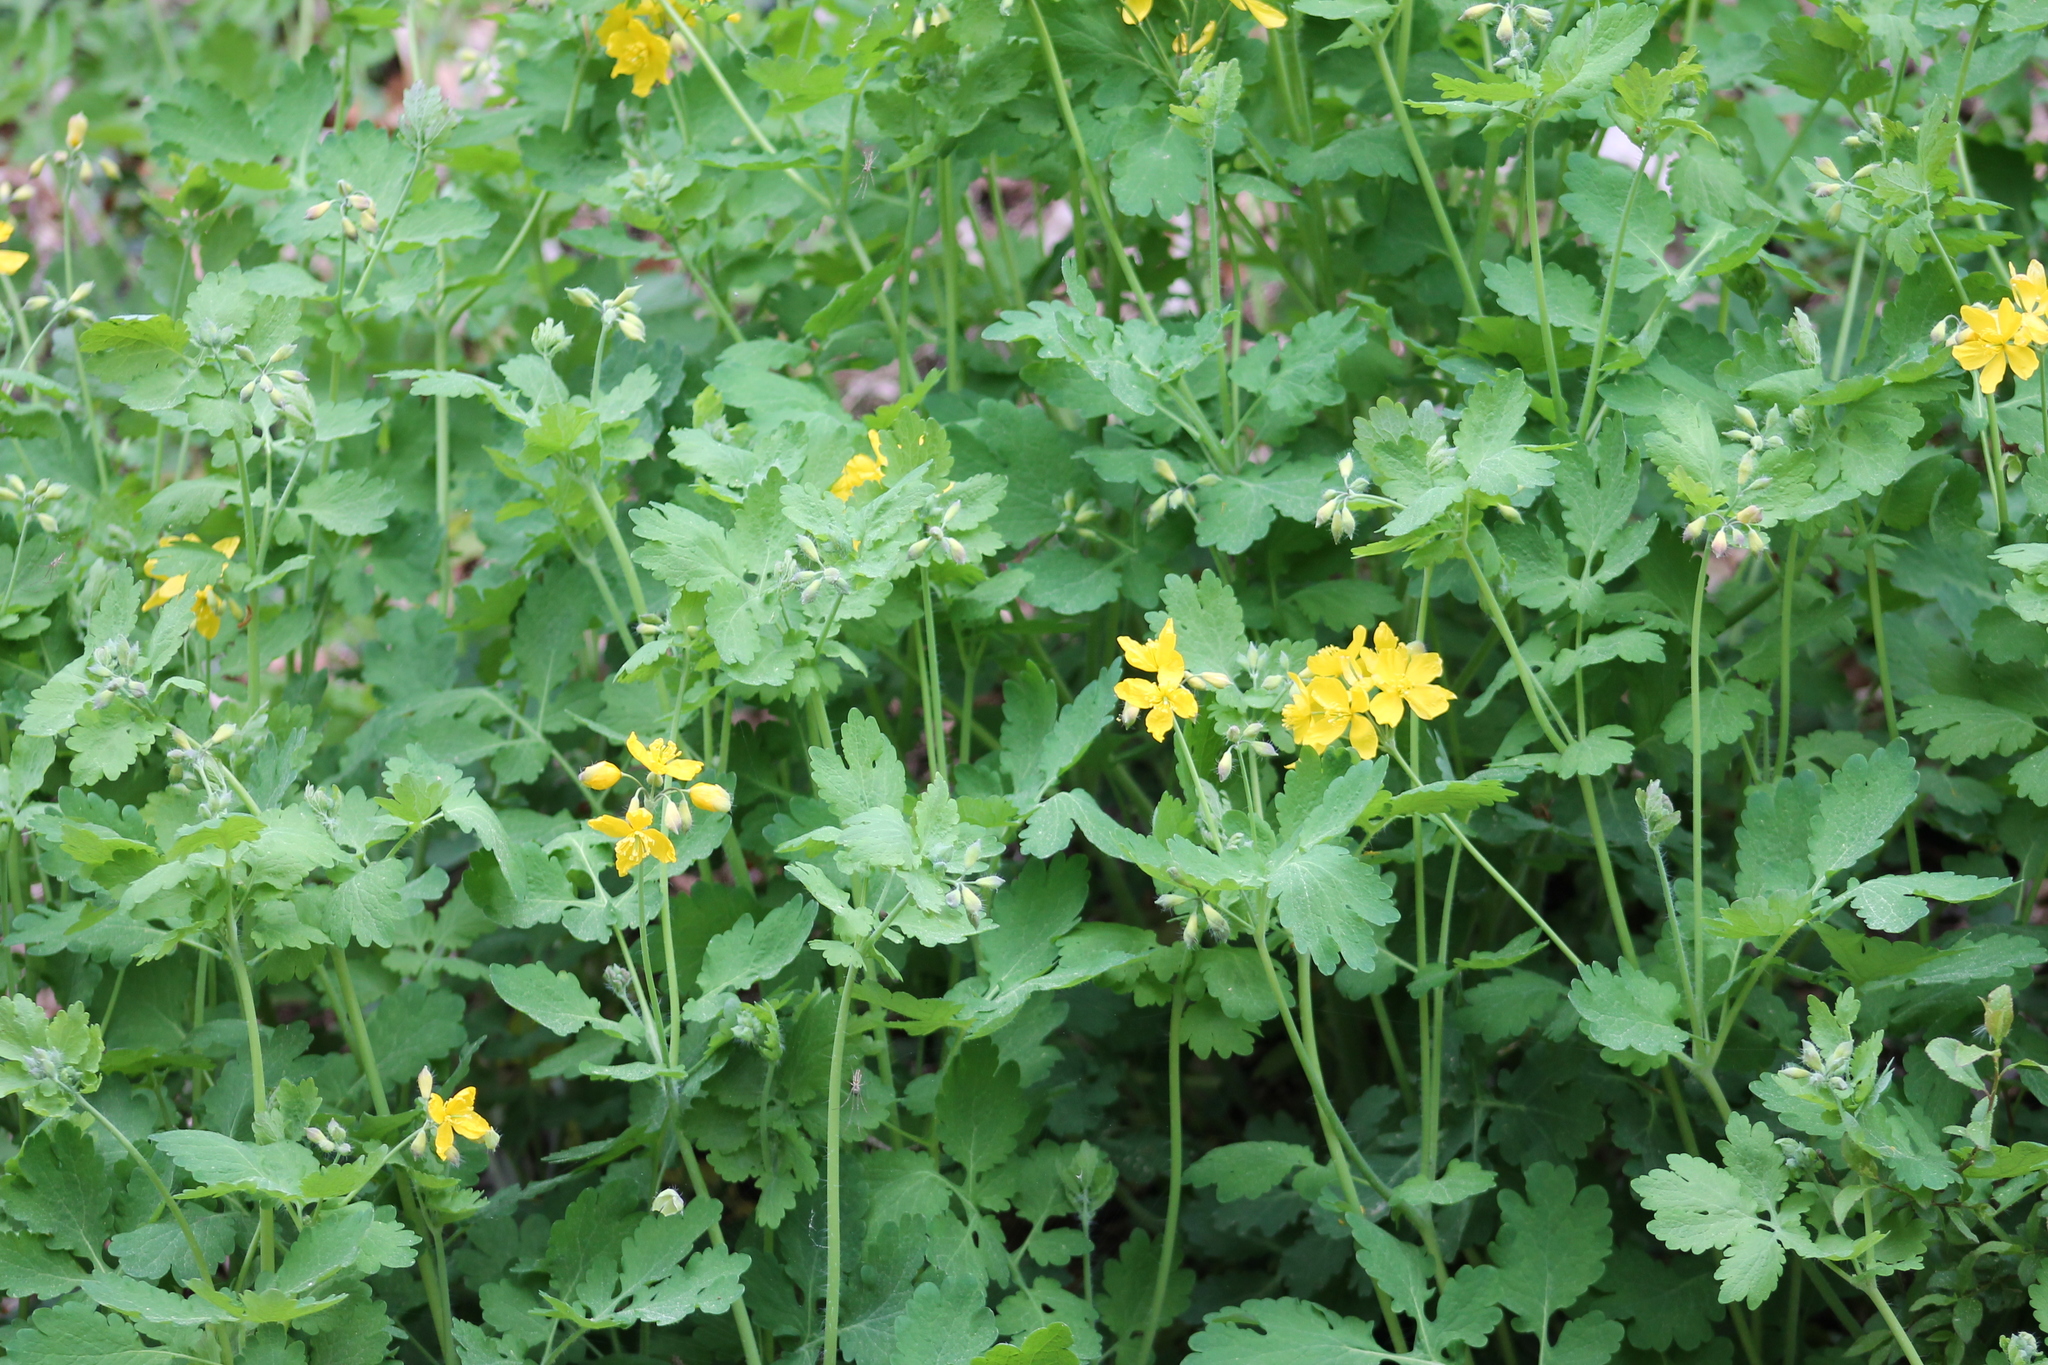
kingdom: Plantae
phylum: Tracheophyta
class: Magnoliopsida
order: Ranunculales
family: Papaveraceae
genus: Chelidonium
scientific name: Chelidonium majus
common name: Greater celandine
